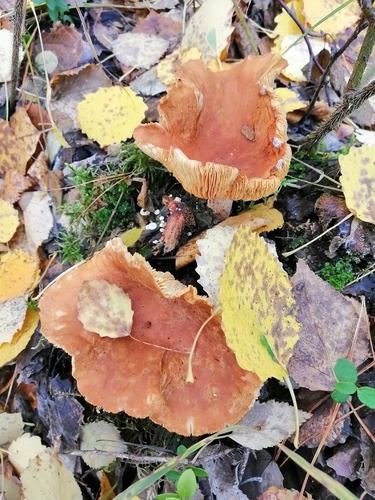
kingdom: Fungi
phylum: Basidiomycota
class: Agaricomycetes
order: Russulales
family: Russulaceae
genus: Lactarius
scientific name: Lactarius
